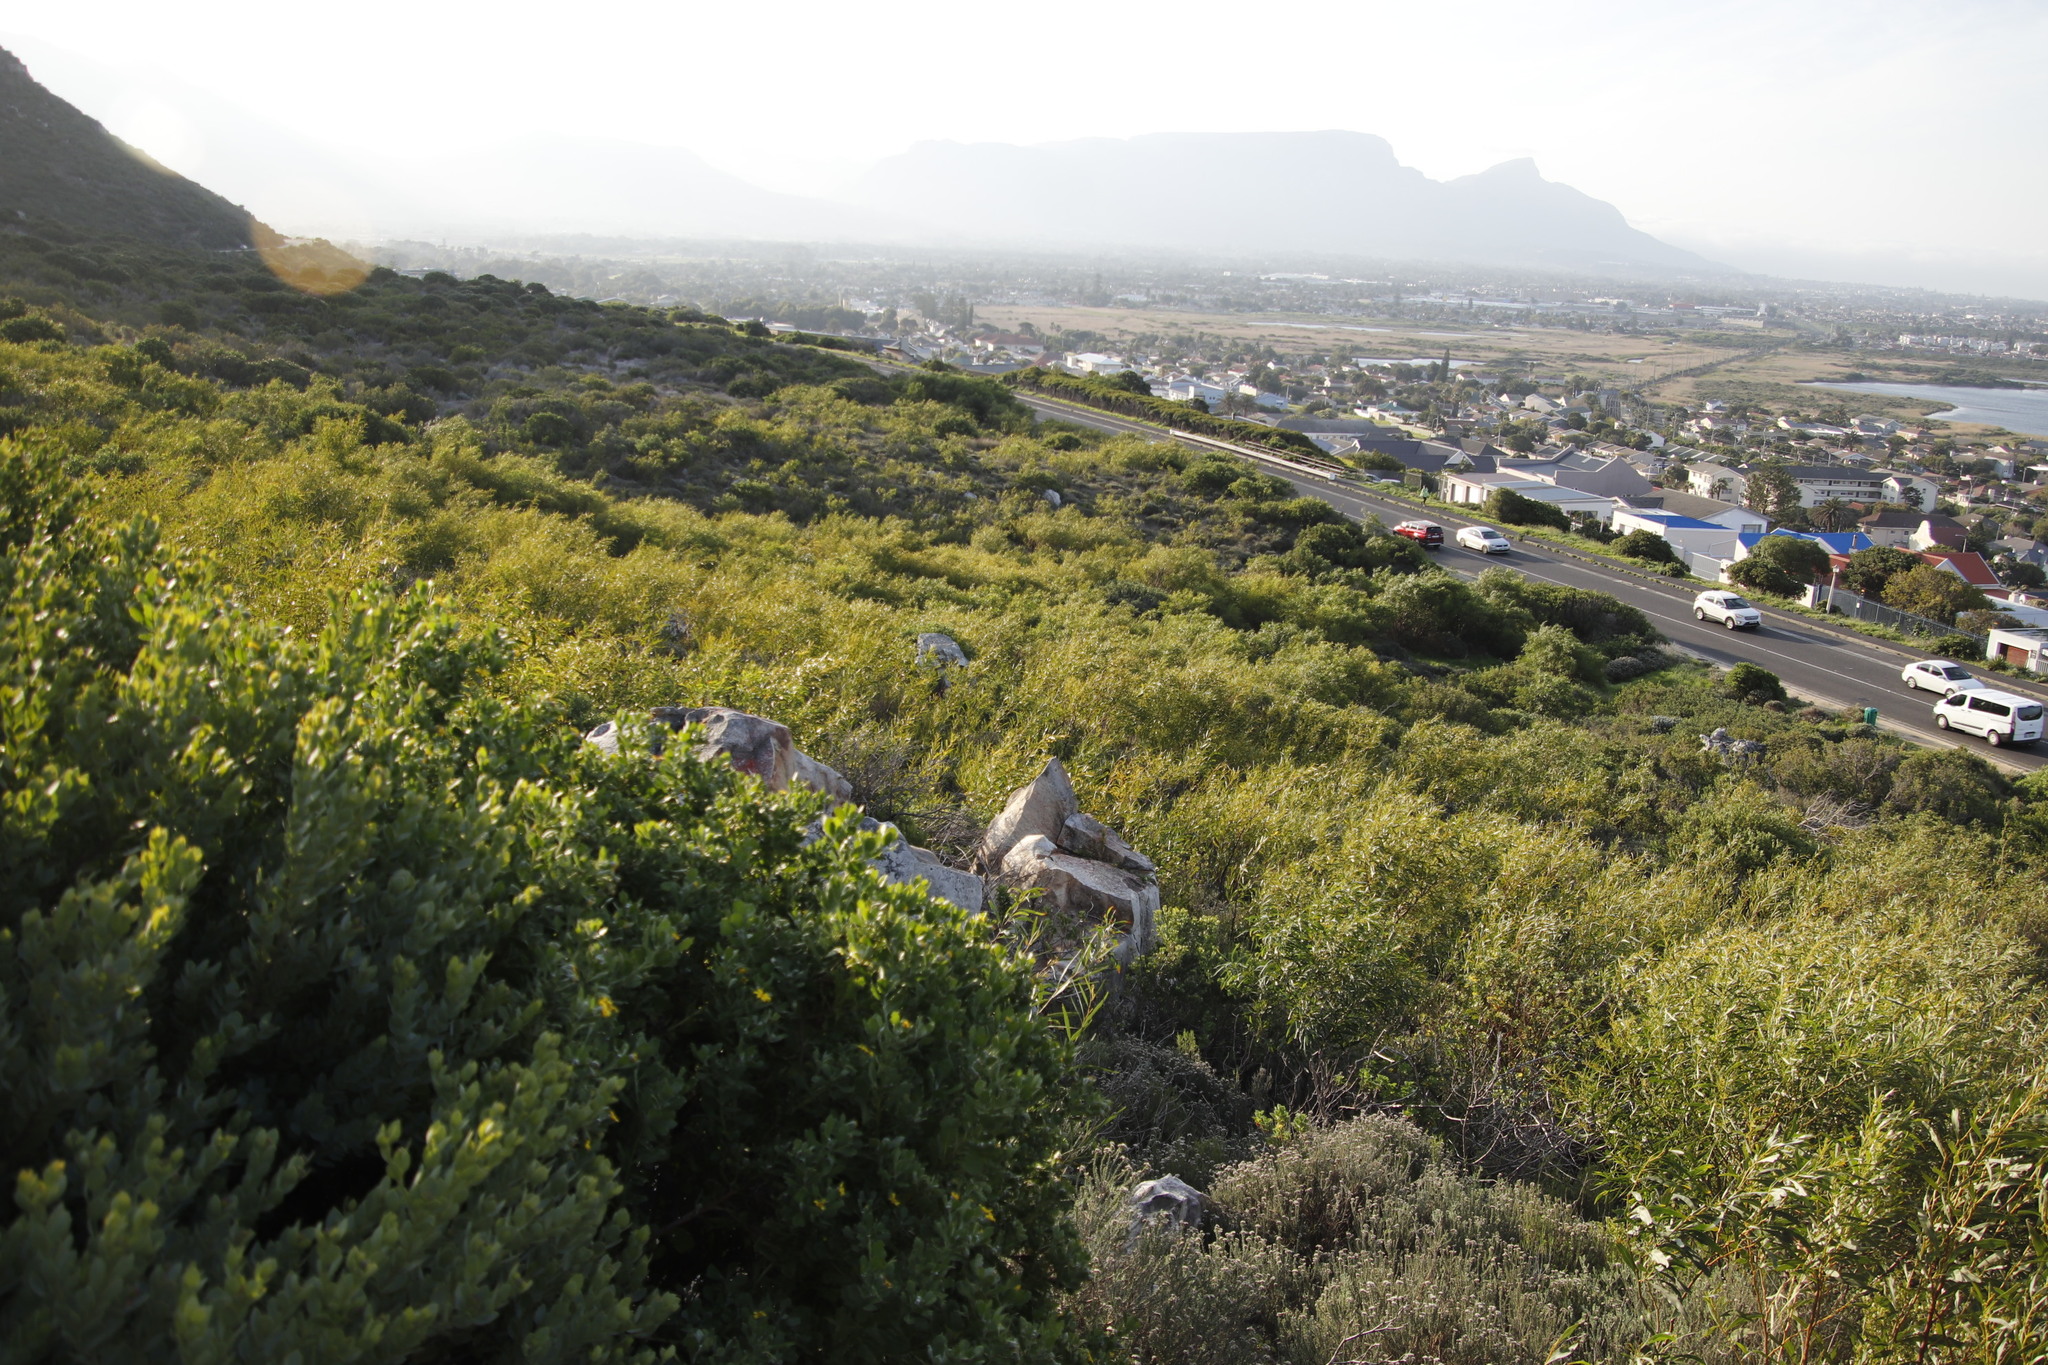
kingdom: Plantae
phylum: Tracheophyta
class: Magnoliopsida
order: Fabales
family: Fabaceae
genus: Acacia
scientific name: Acacia saligna
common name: Orange wattle
